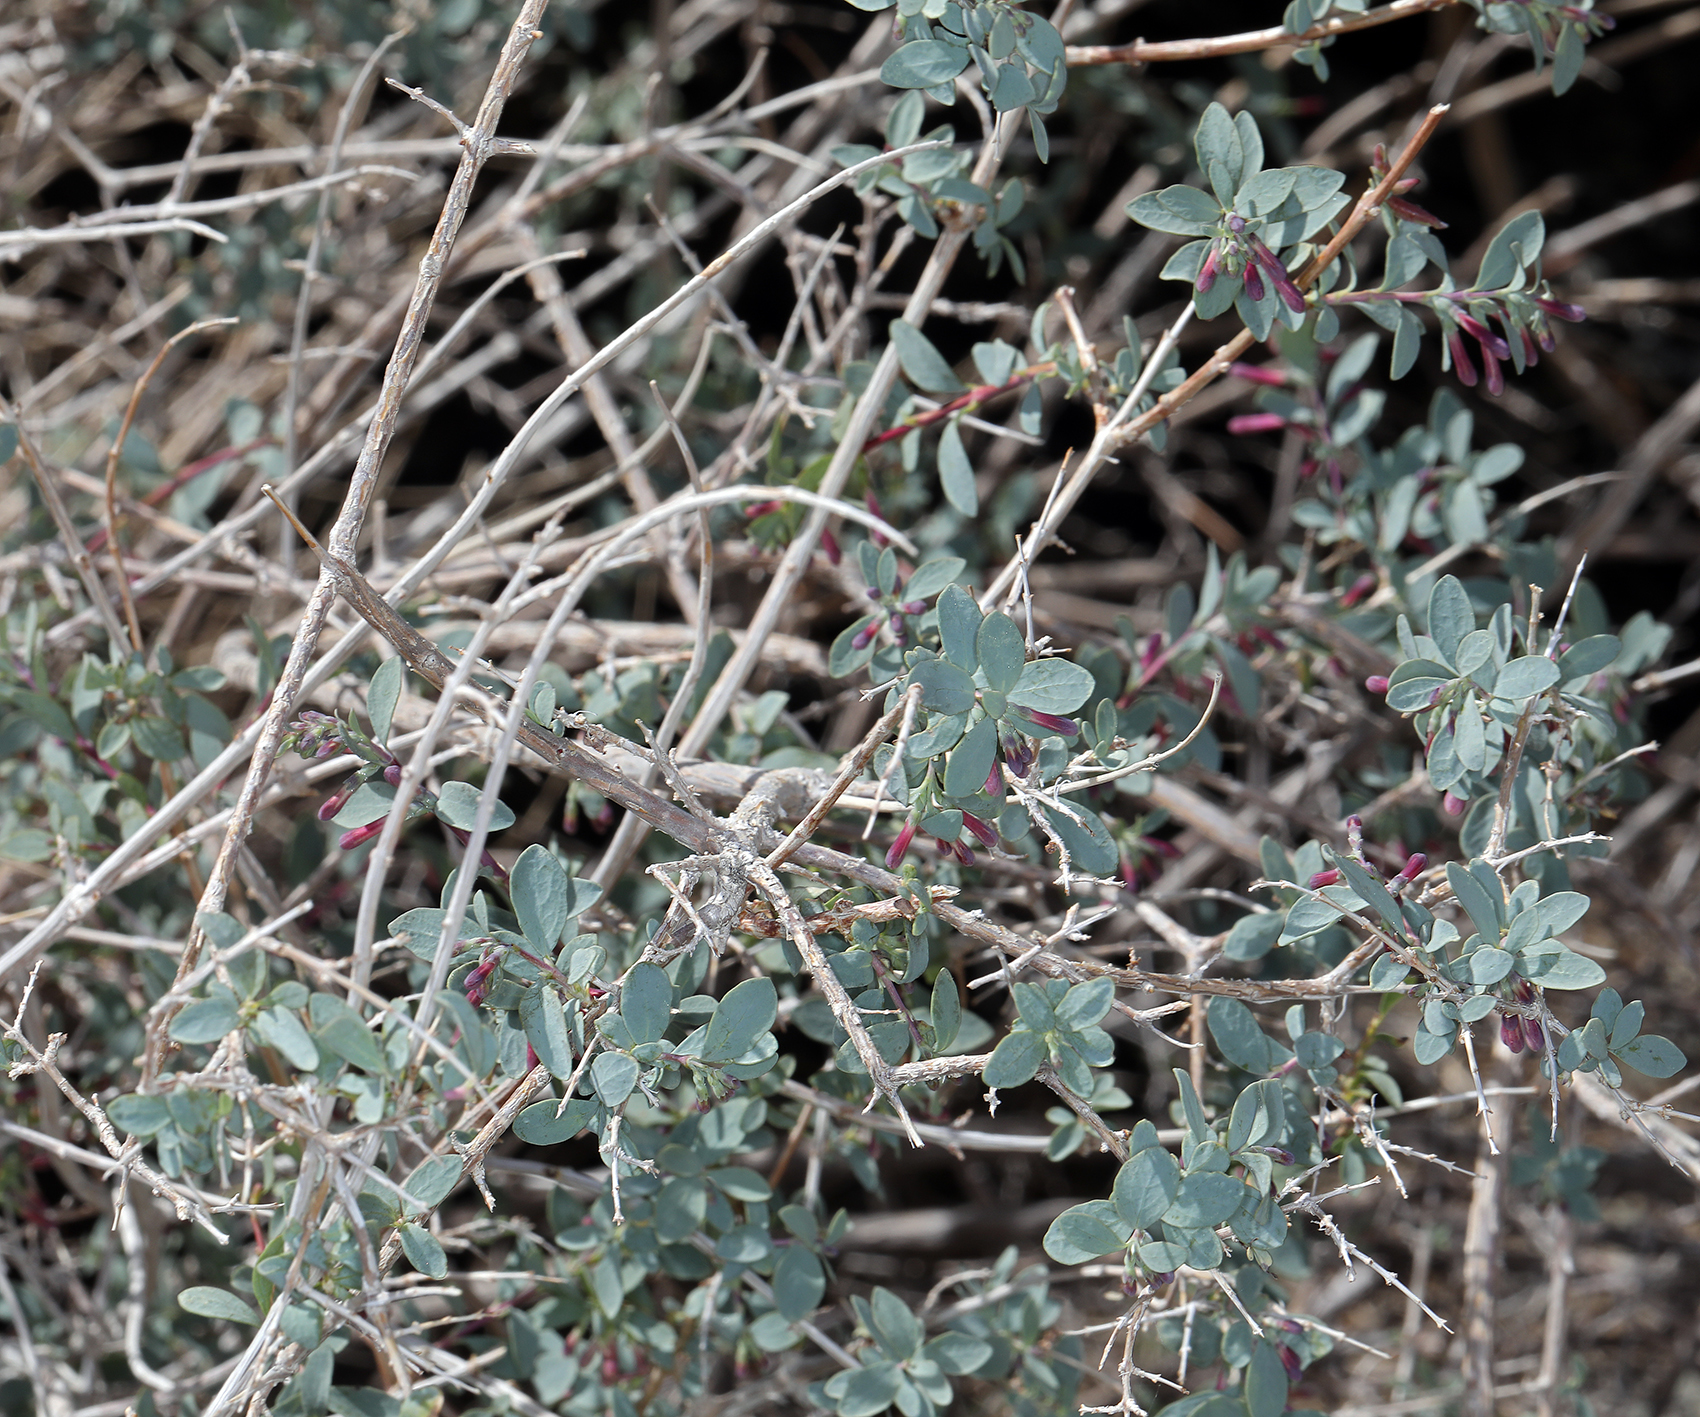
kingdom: Plantae
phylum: Tracheophyta
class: Magnoliopsida
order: Dipsacales
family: Caprifoliaceae
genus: Symphoricarpos
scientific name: Symphoricarpos longiflorus
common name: Fragrant snowberry
